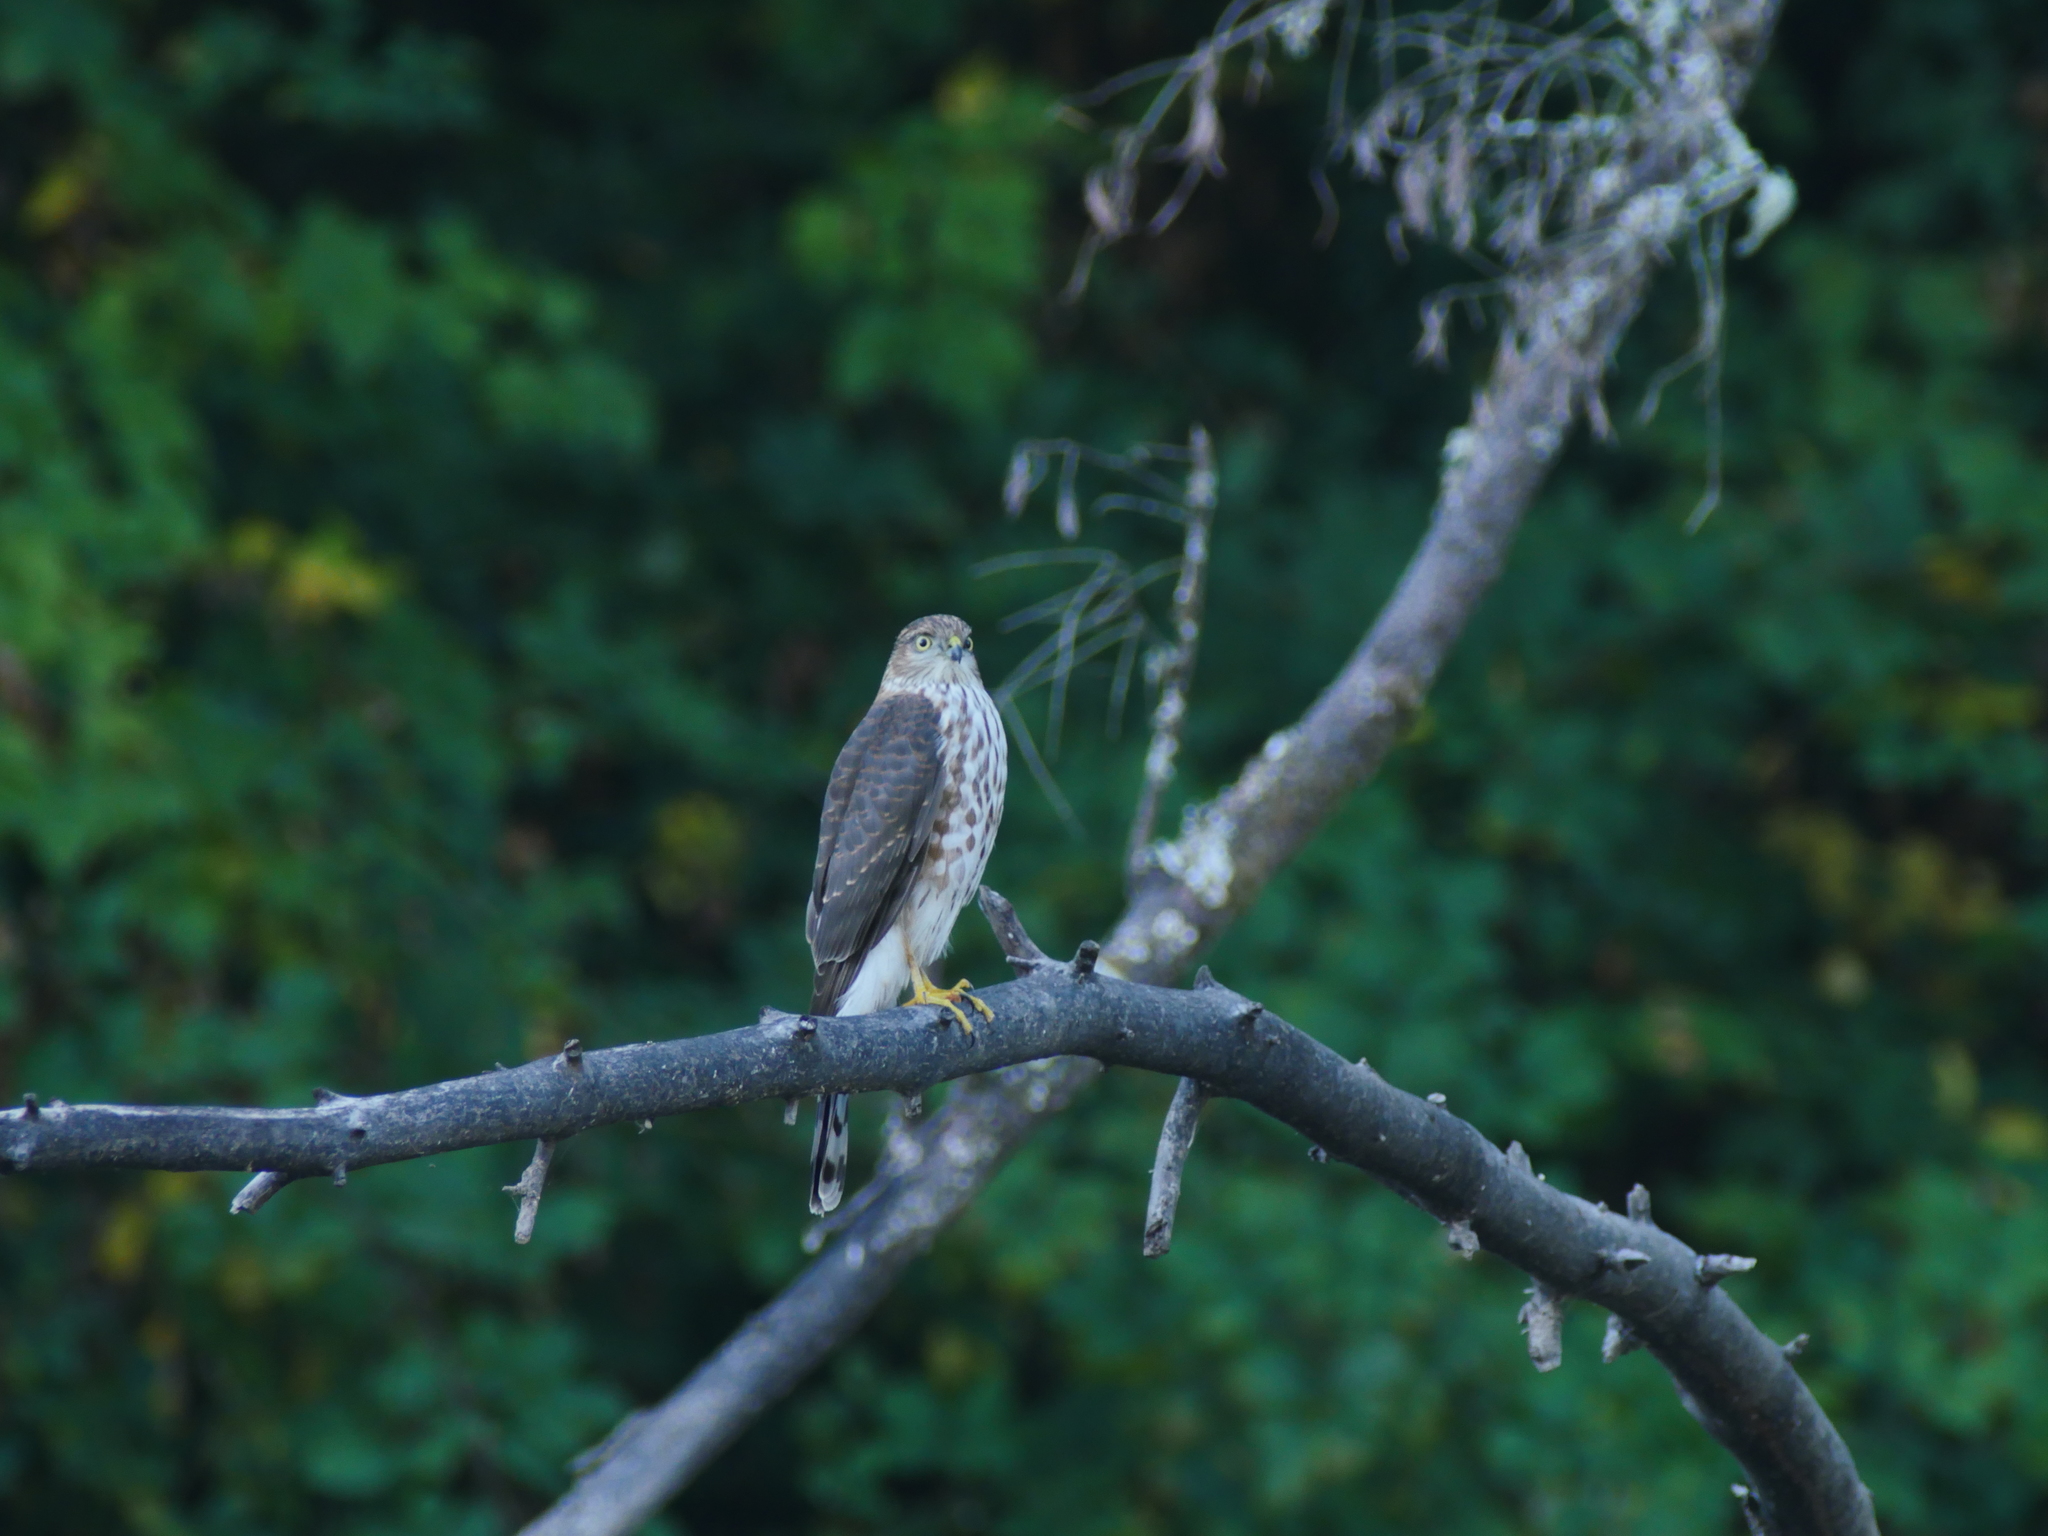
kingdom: Animalia
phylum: Chordata
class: Aves
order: Accipitriformes
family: Accipitridae
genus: Accipiter
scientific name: Accipiter striatus
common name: Sharp-shinned hawk
